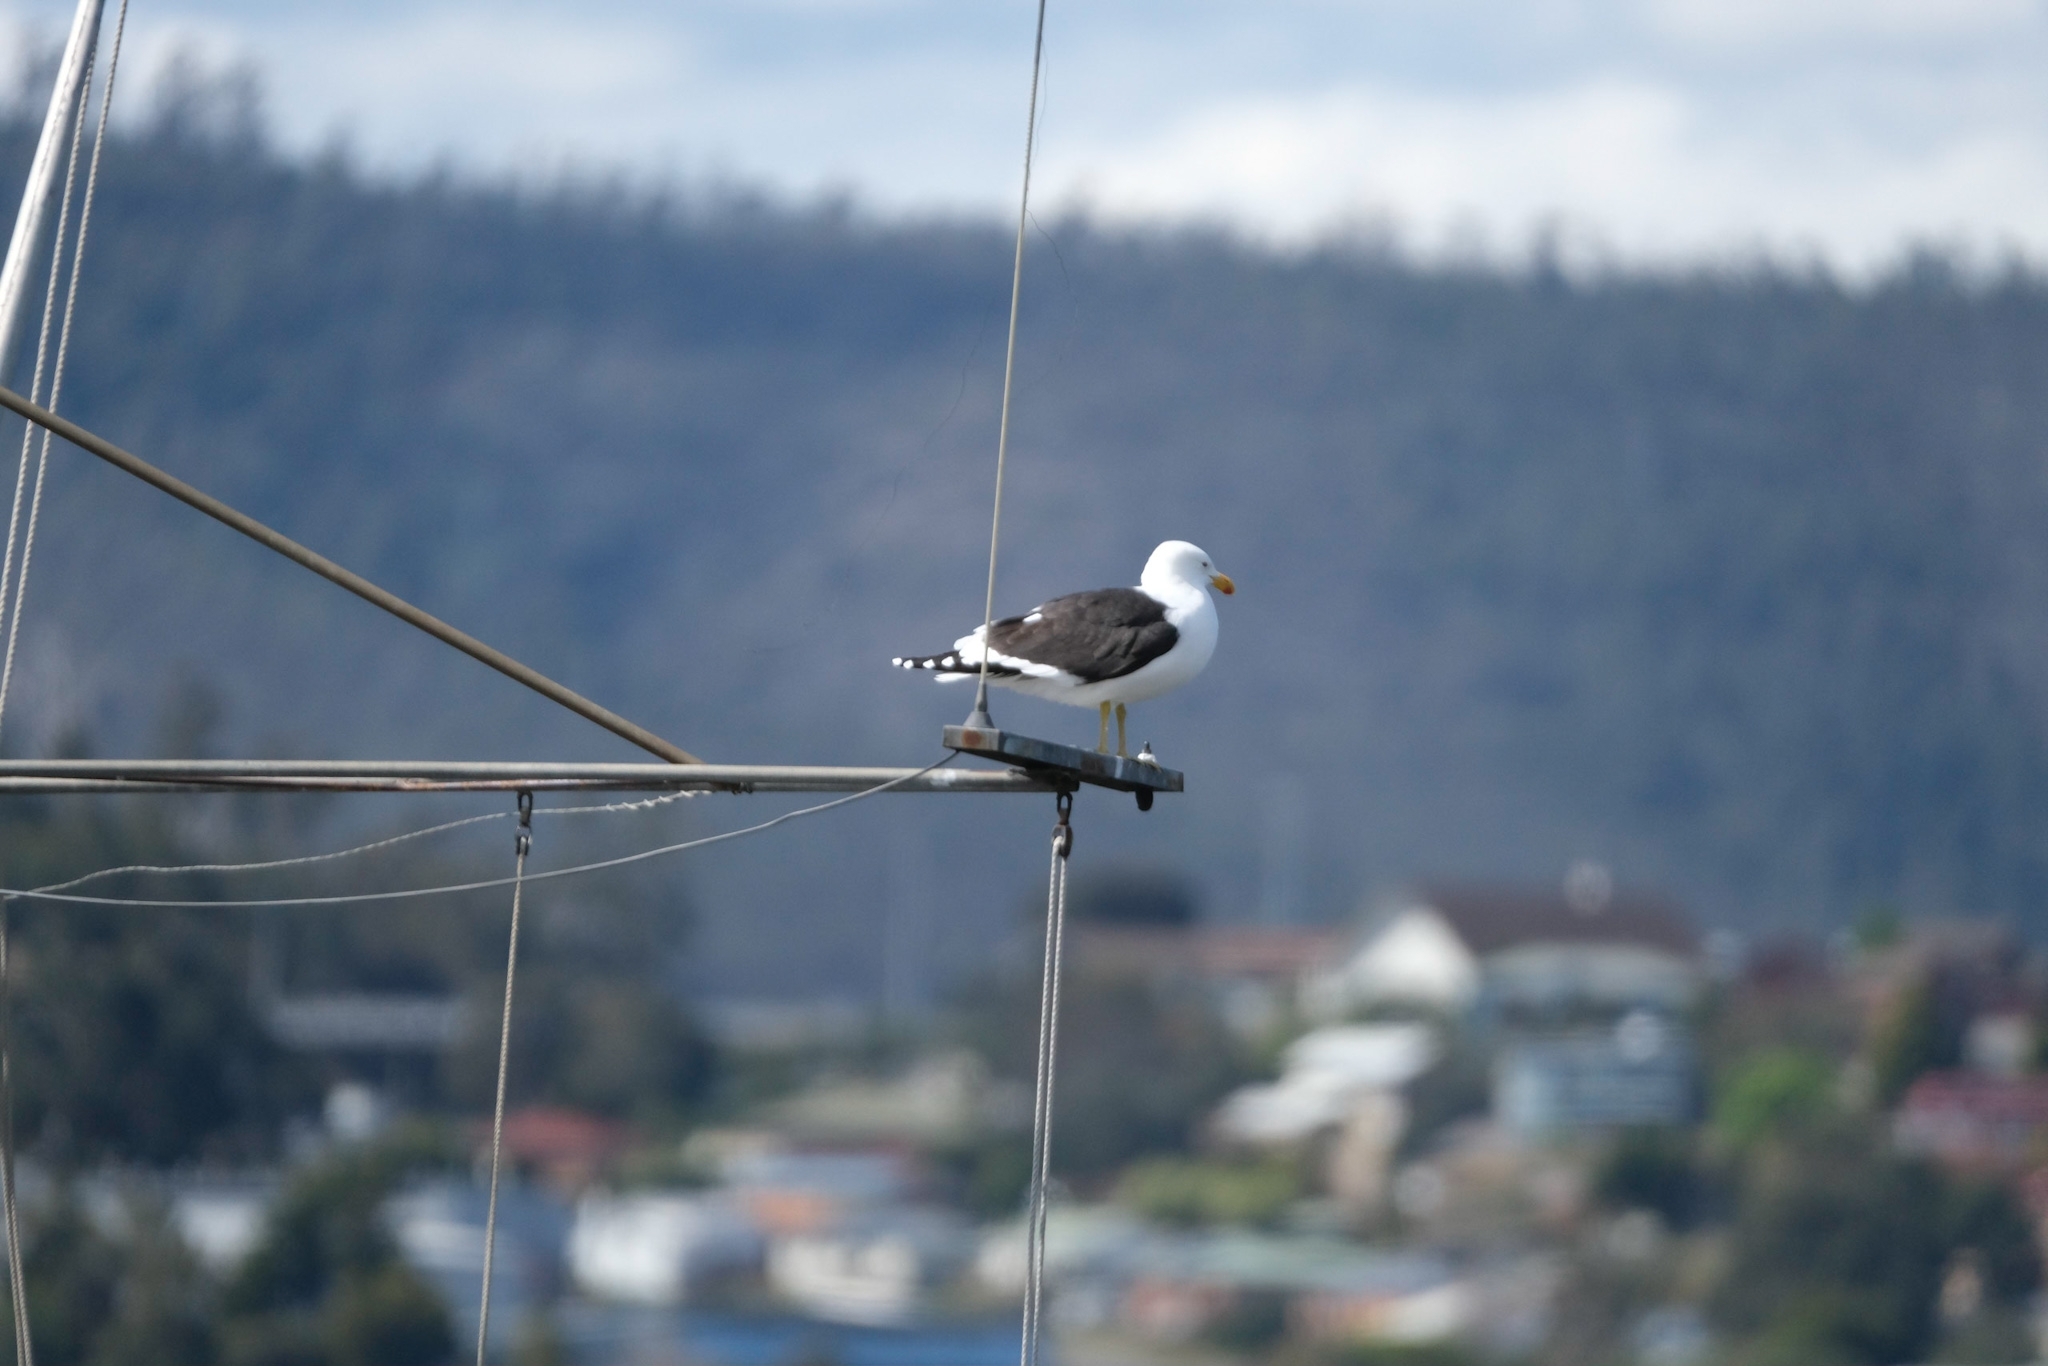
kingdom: Animalia
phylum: Chordata
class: Aves
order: Charadriiformes
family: Laridae
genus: Larus
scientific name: Larus dominicanus
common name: Kelp gull
